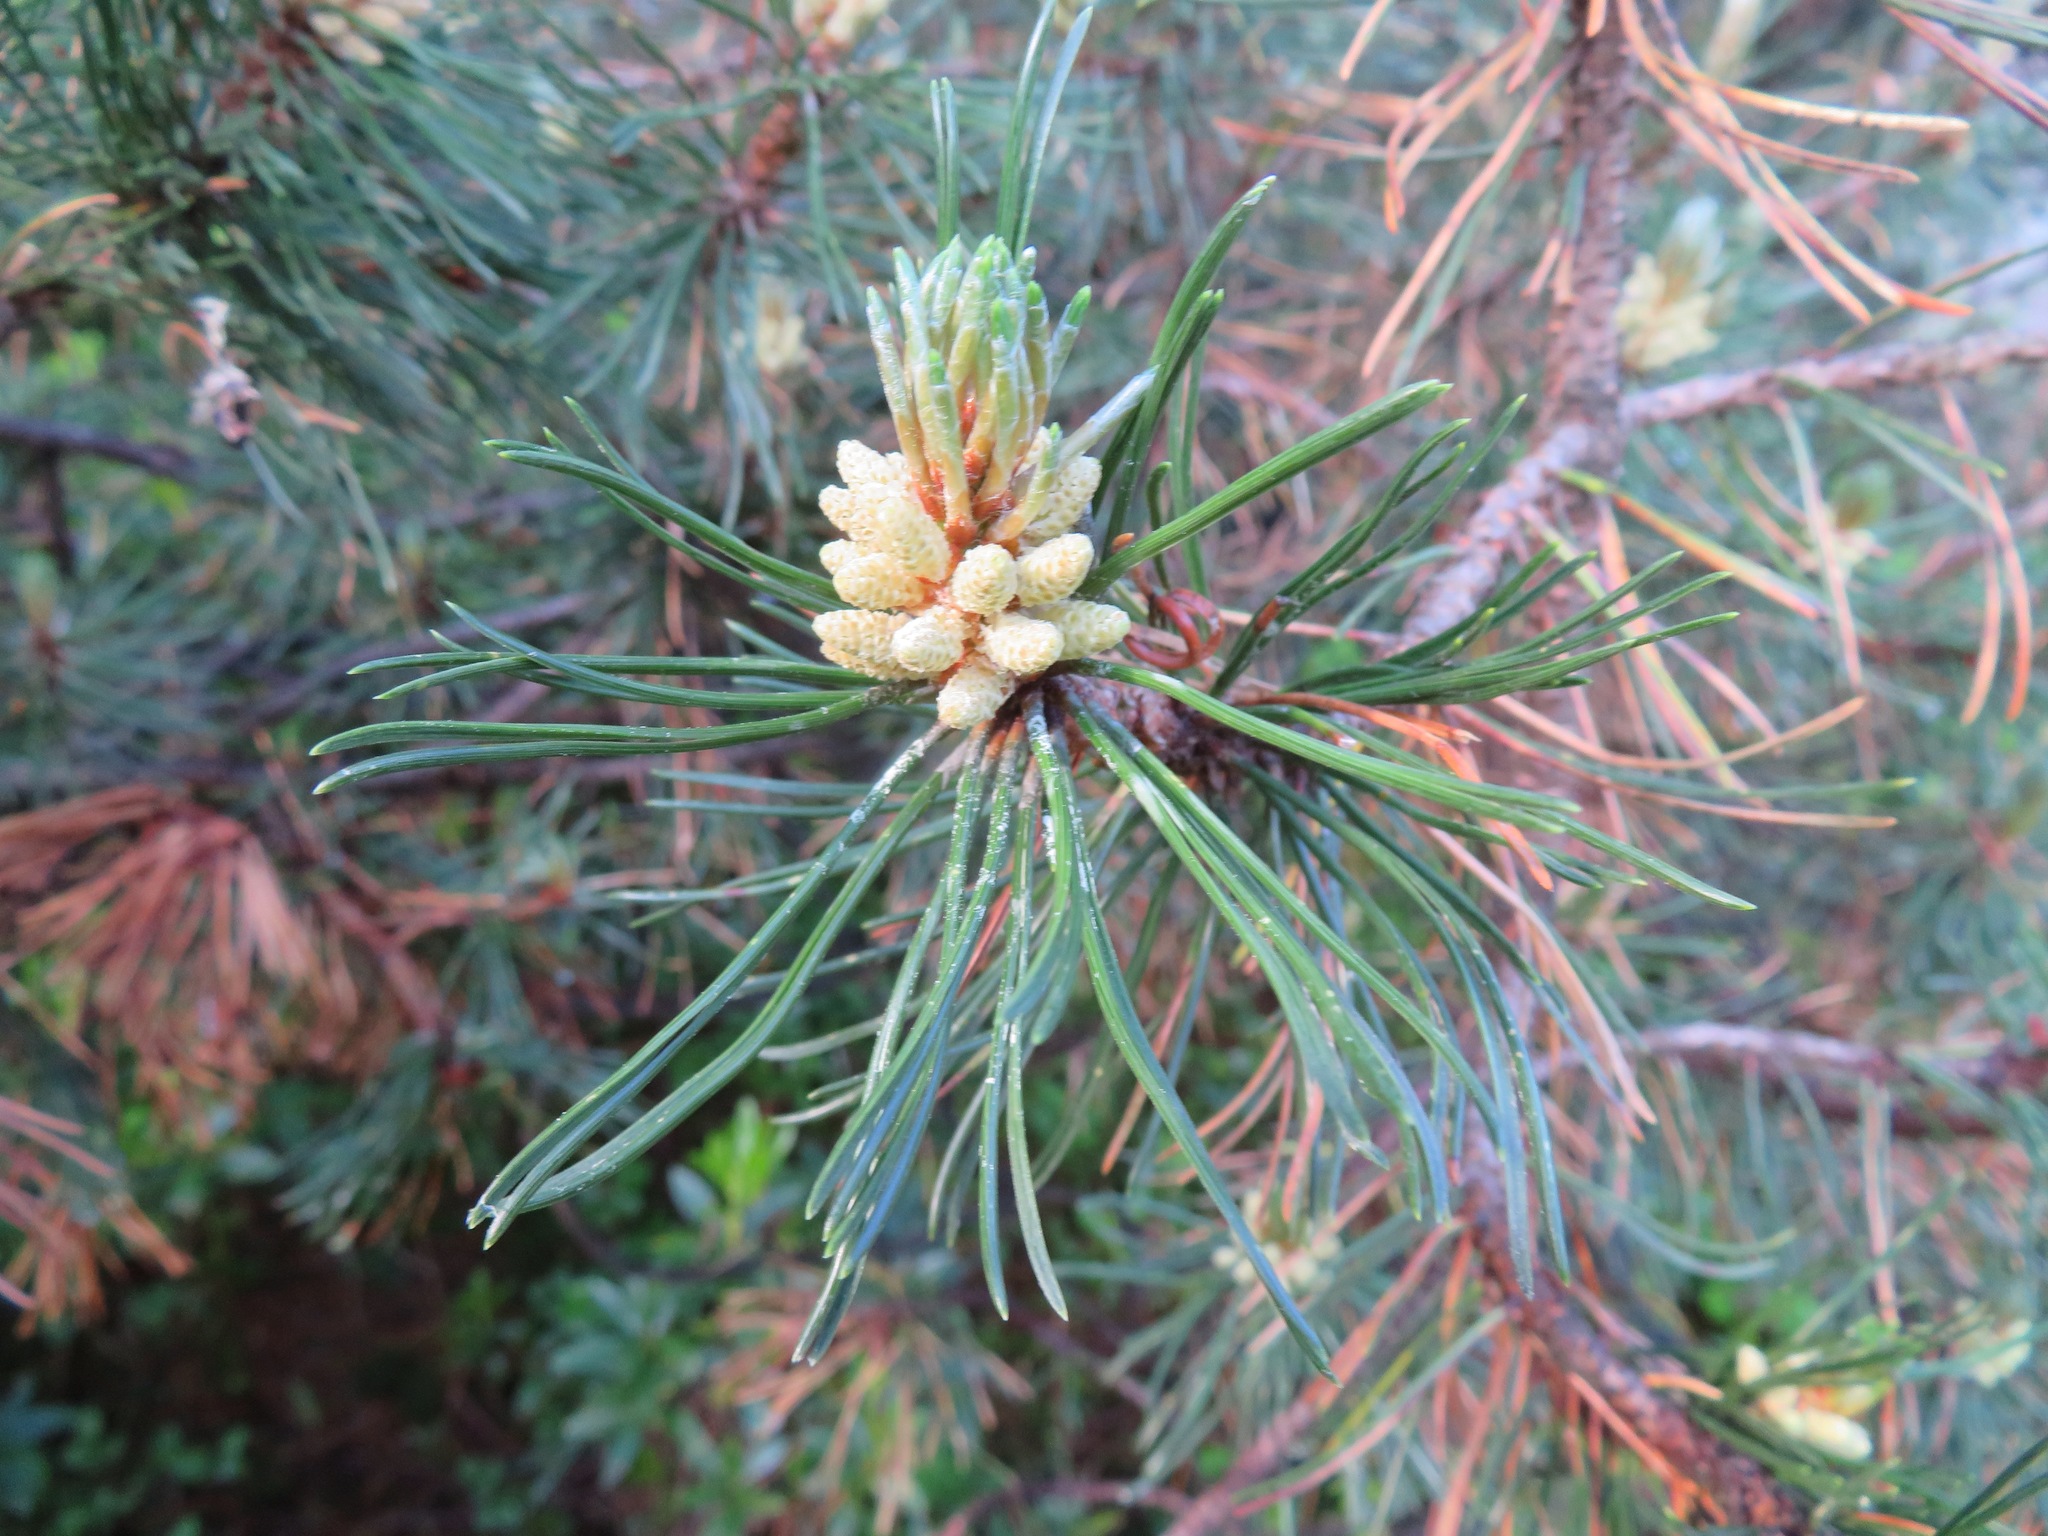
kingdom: Plantae
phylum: Tracheophyta
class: Pinopsida
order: Pinales
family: Pinaceae
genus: Pinus
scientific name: Pinus mugo
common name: Mugo pine
